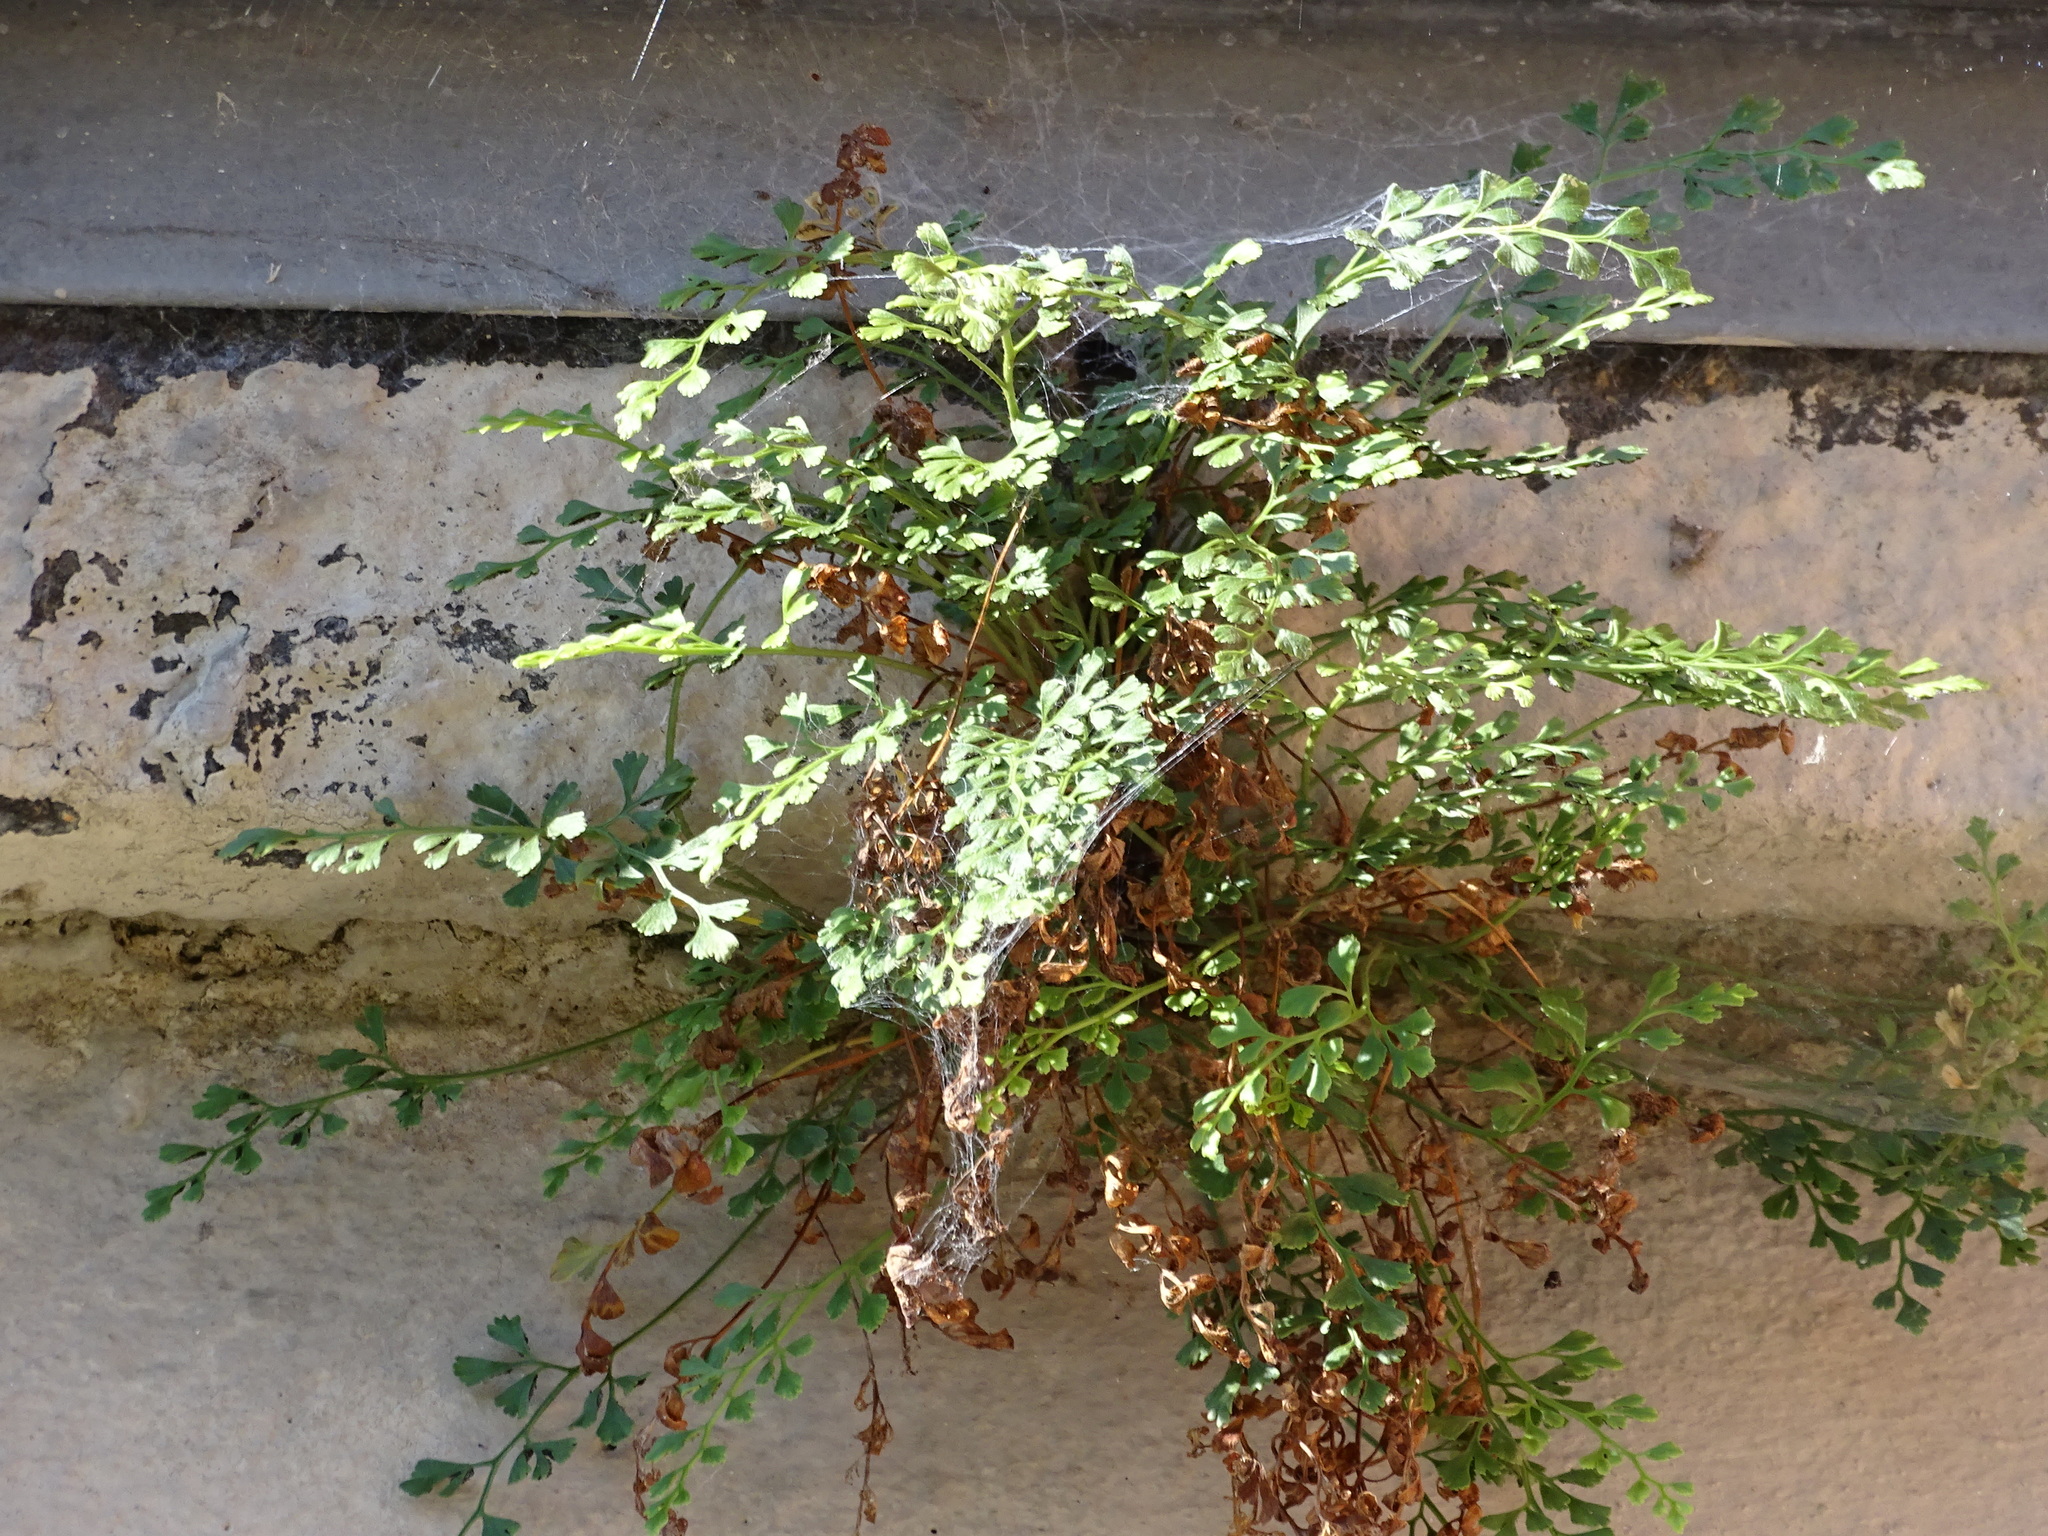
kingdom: Plantae
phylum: Tracheophyta
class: Polypodiopsida
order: Polypodiales
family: Aspleniaceae
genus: Asplenium
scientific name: Asplenium ruta-muraria
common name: Wall-rue
